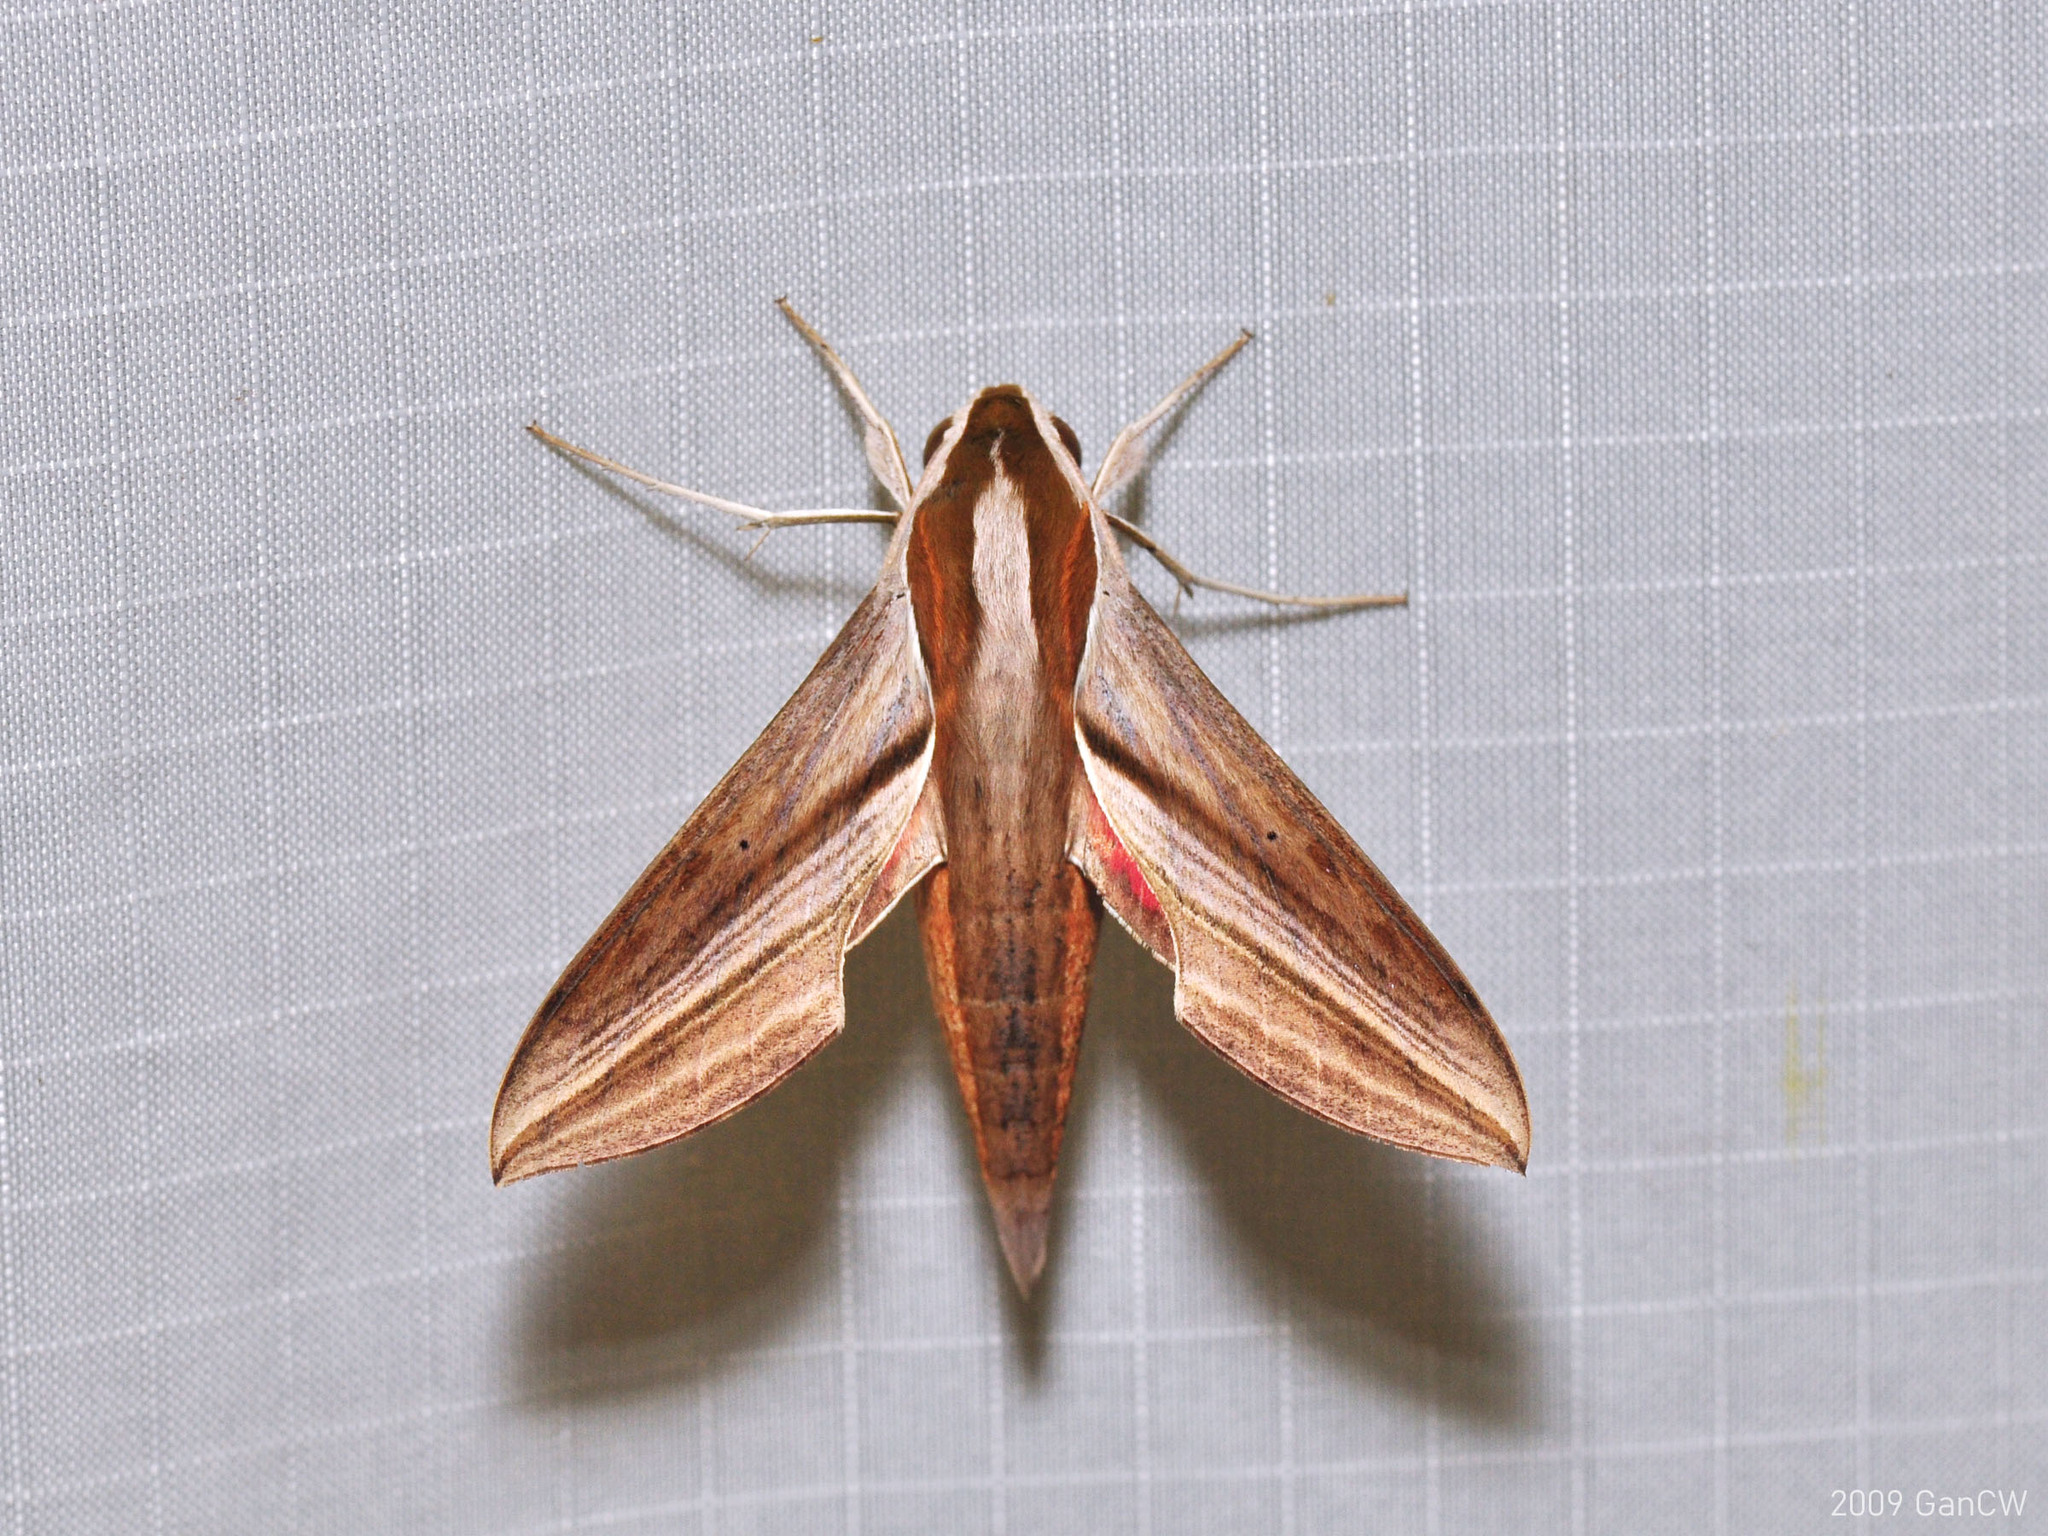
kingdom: Animalia
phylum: Arthropoda
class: Insecta
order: Lepidoptera
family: Sphingidae
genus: Hippotion
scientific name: Hippotion echeclus
